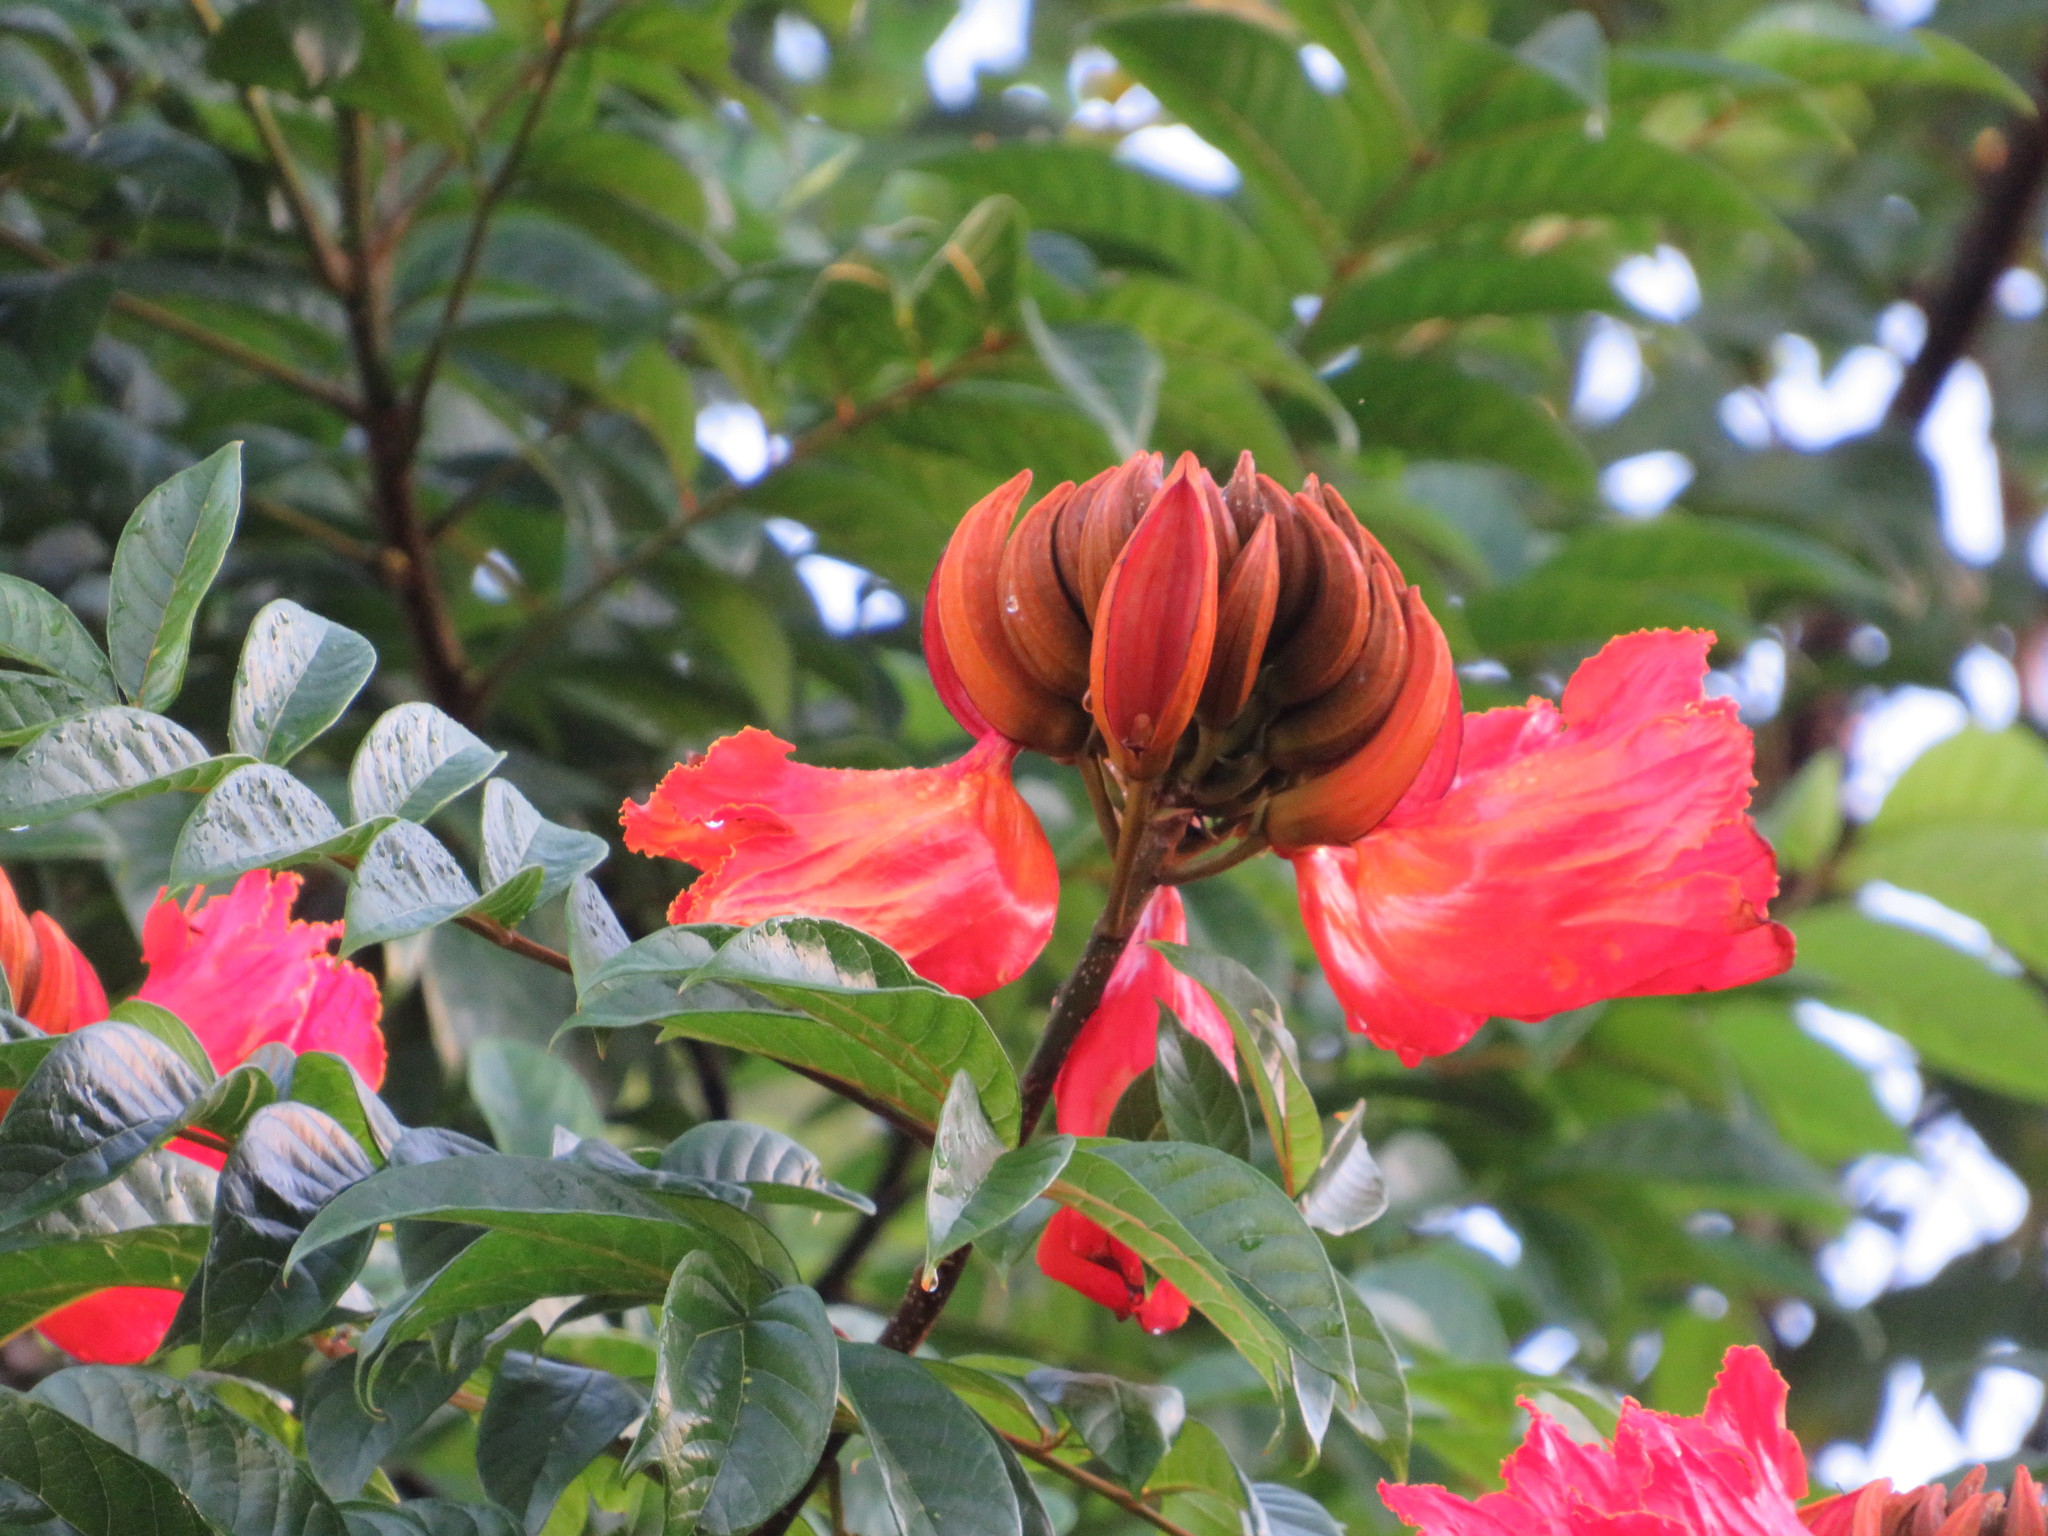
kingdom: Plantae
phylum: Tracheophyta
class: Magnoliopsida
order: Lamiales
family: Bignoniaceae
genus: Spathodea
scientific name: Spathodea campanulata
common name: African tuliptree
